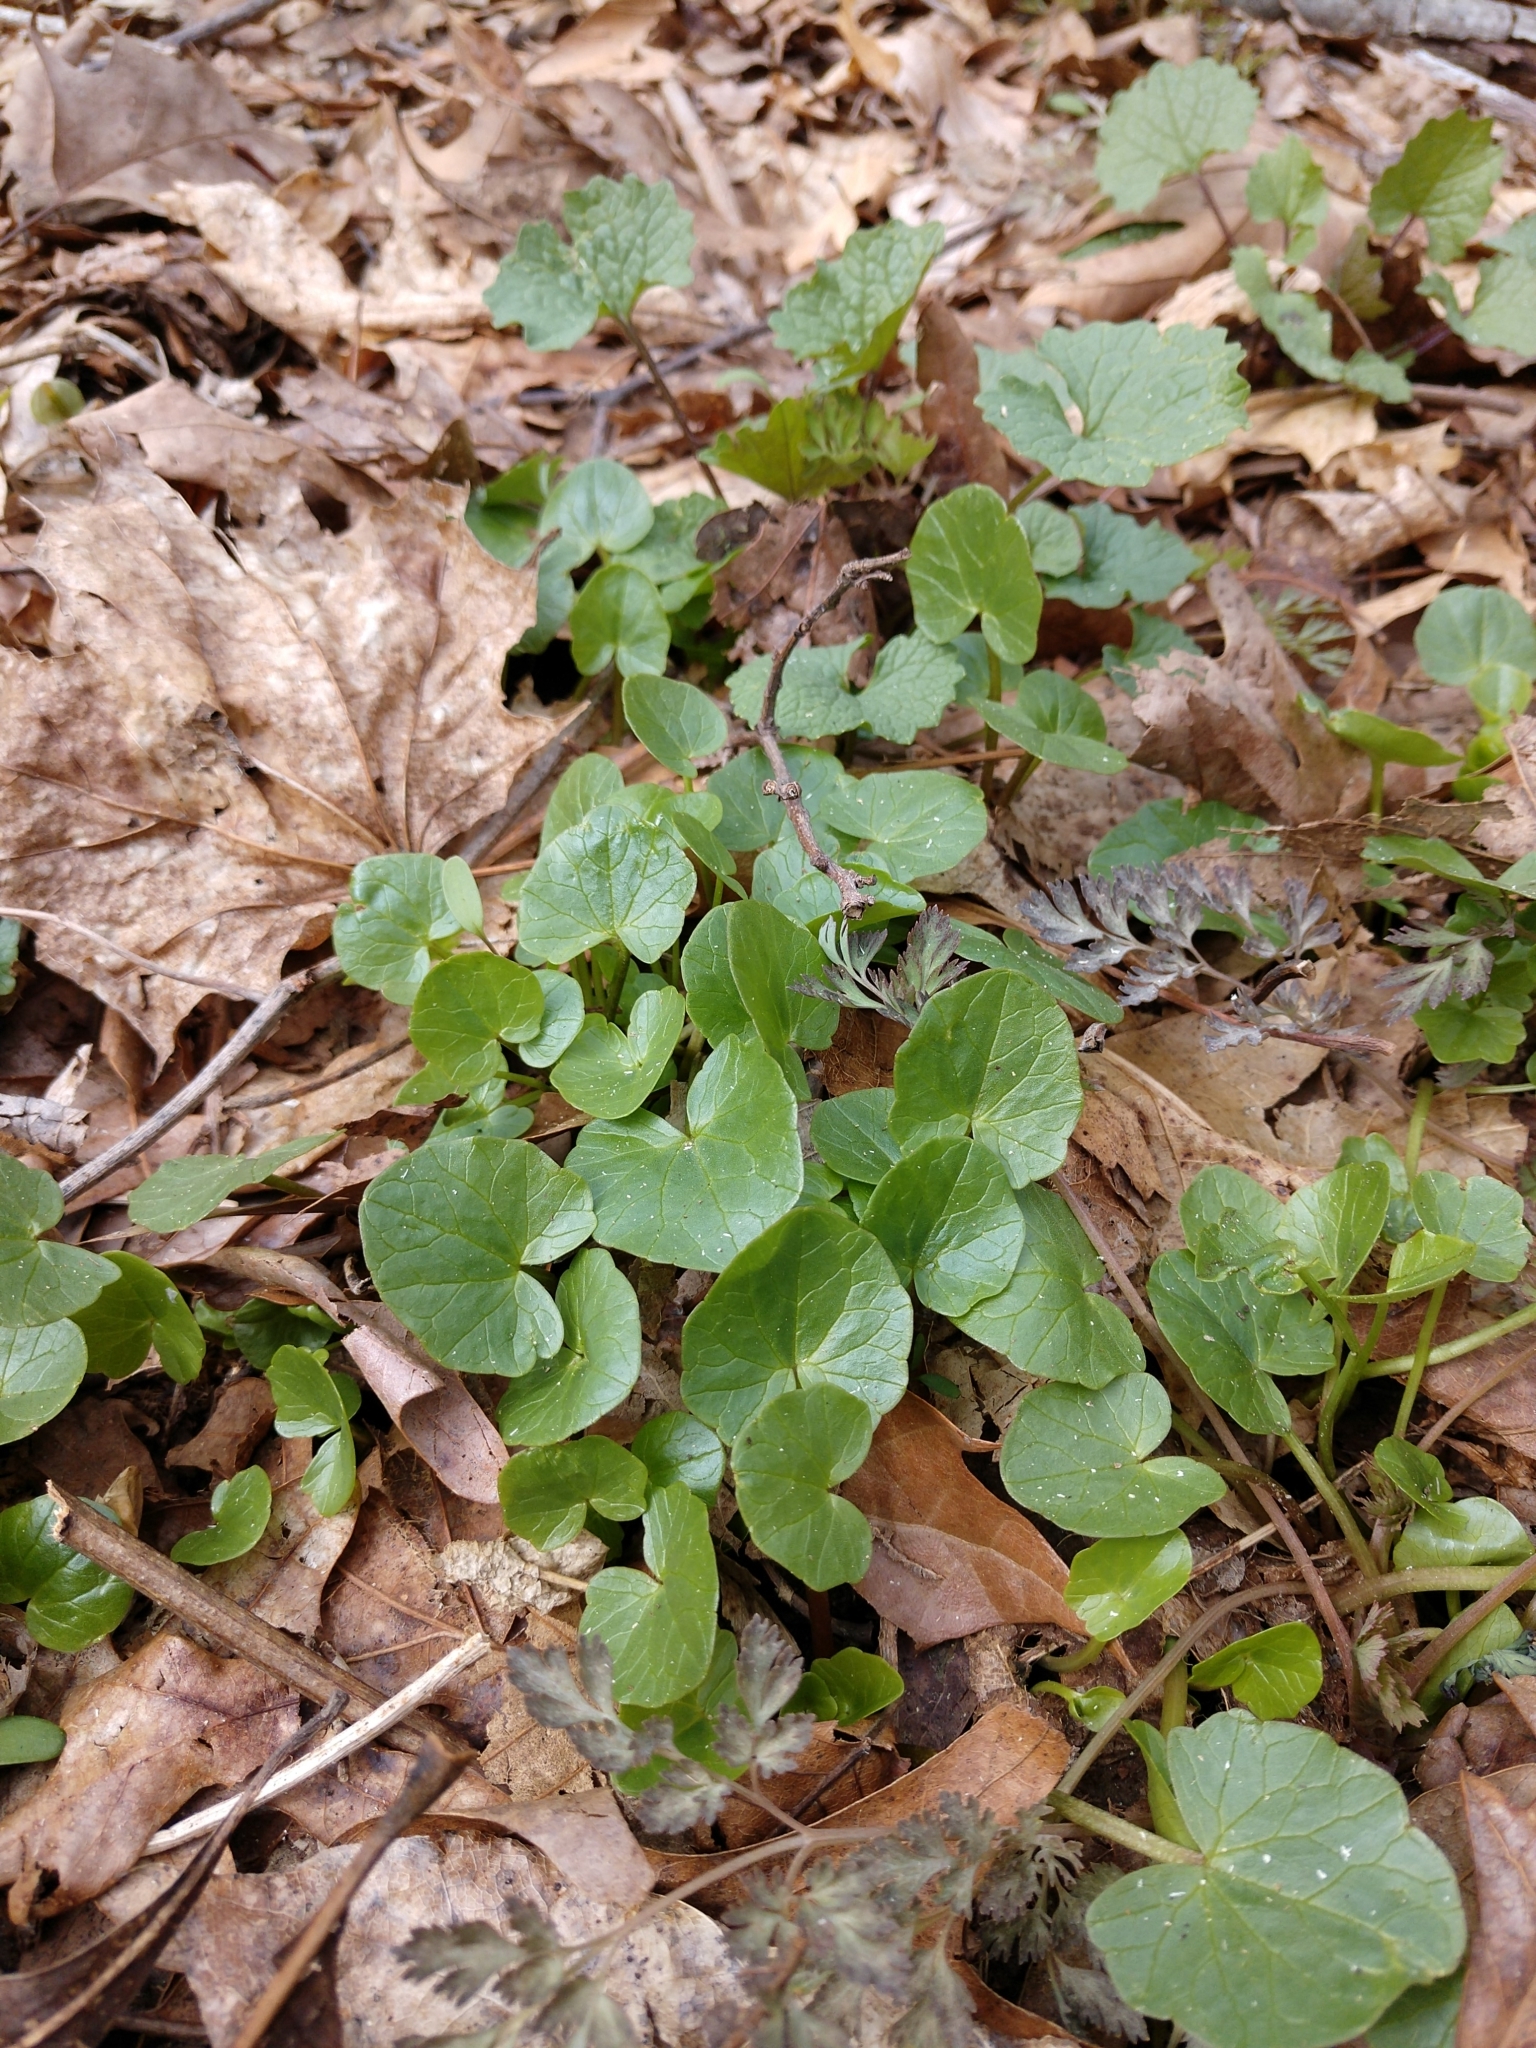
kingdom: Plantae
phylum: Tracheophyta
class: Magnoliopsida
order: Ranunculales
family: Ranunculaceae
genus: Ficaria
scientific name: Ficaria verna
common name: Lesser celandine
